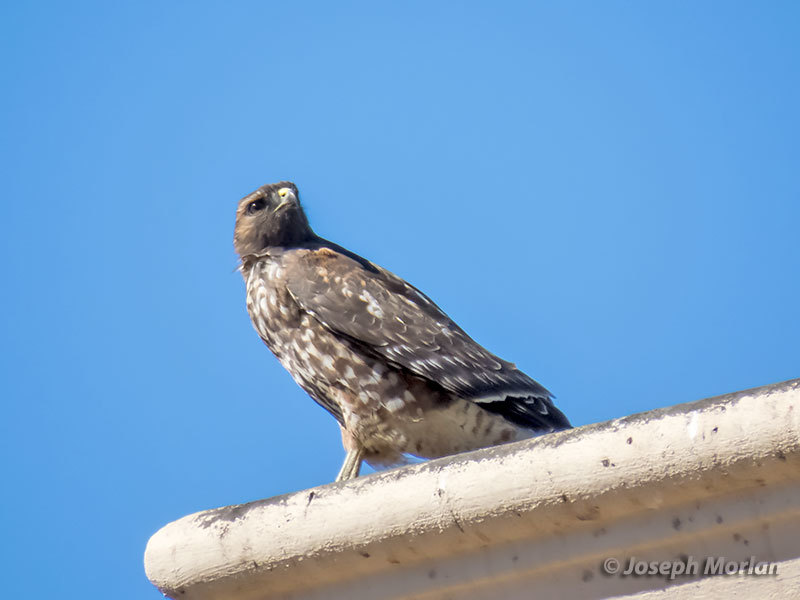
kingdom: Animalia
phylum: Chordata
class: Aves
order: Accipitriformes
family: Accipitridae
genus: Buteo
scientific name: Buteo lineatus
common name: Red-shouldered hawk
